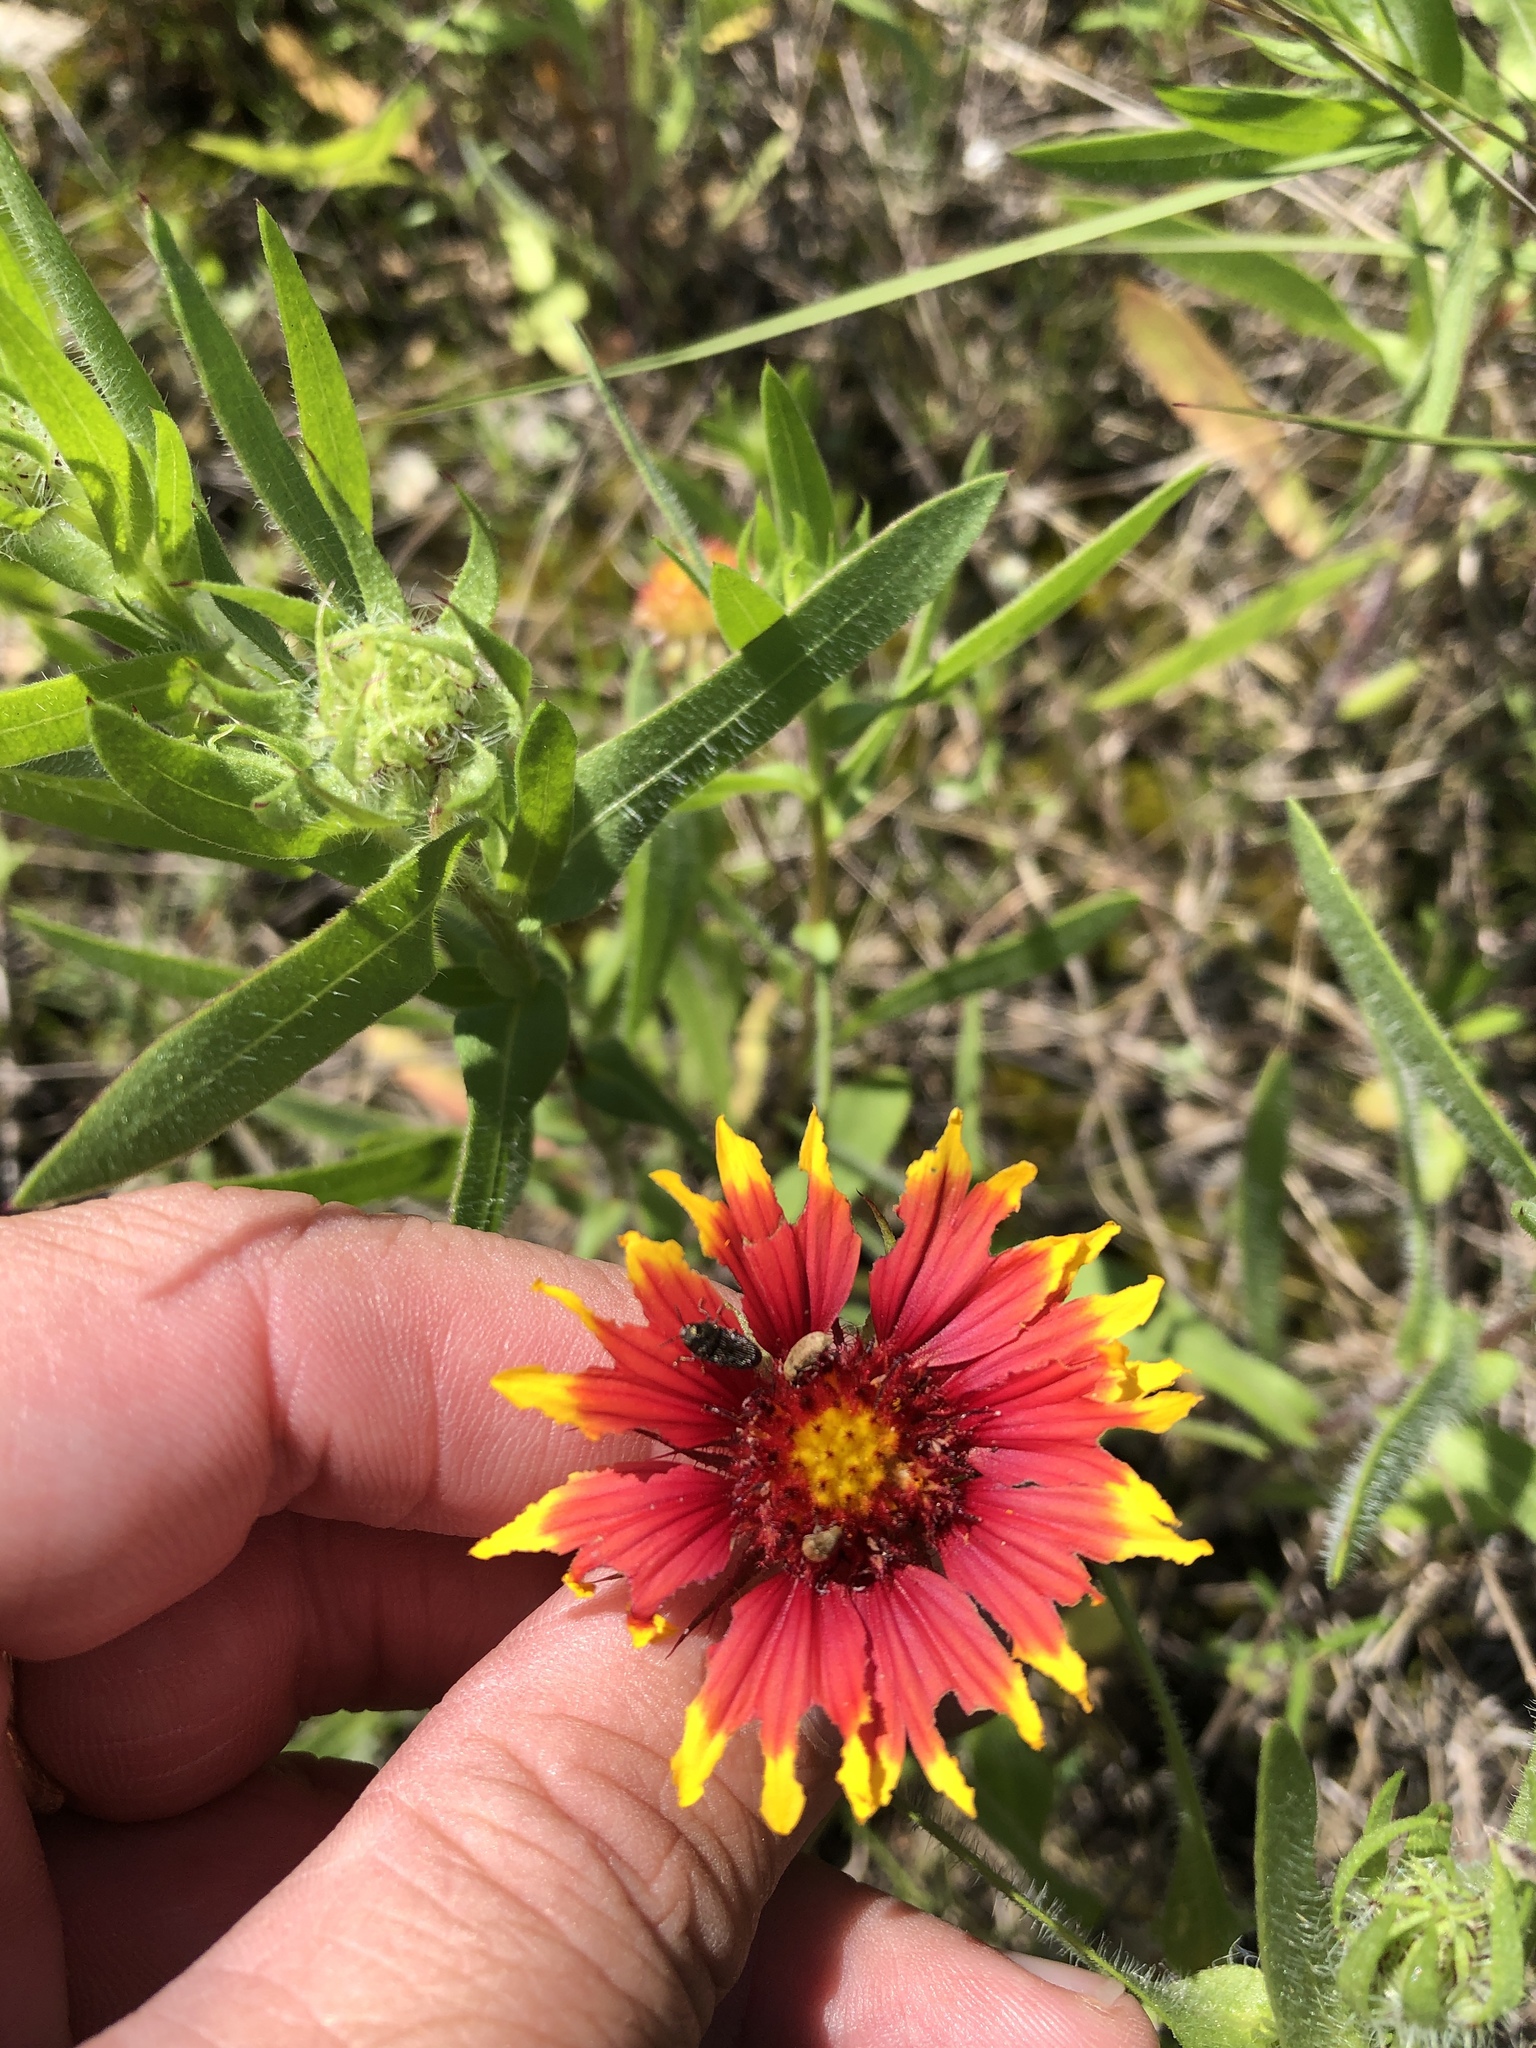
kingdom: Plantae
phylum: Tracheophyta
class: Magnoliopsida
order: Asterales
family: Asteraceae
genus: Gaillardia
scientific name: Gaillardia pulchella
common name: Firewheel
